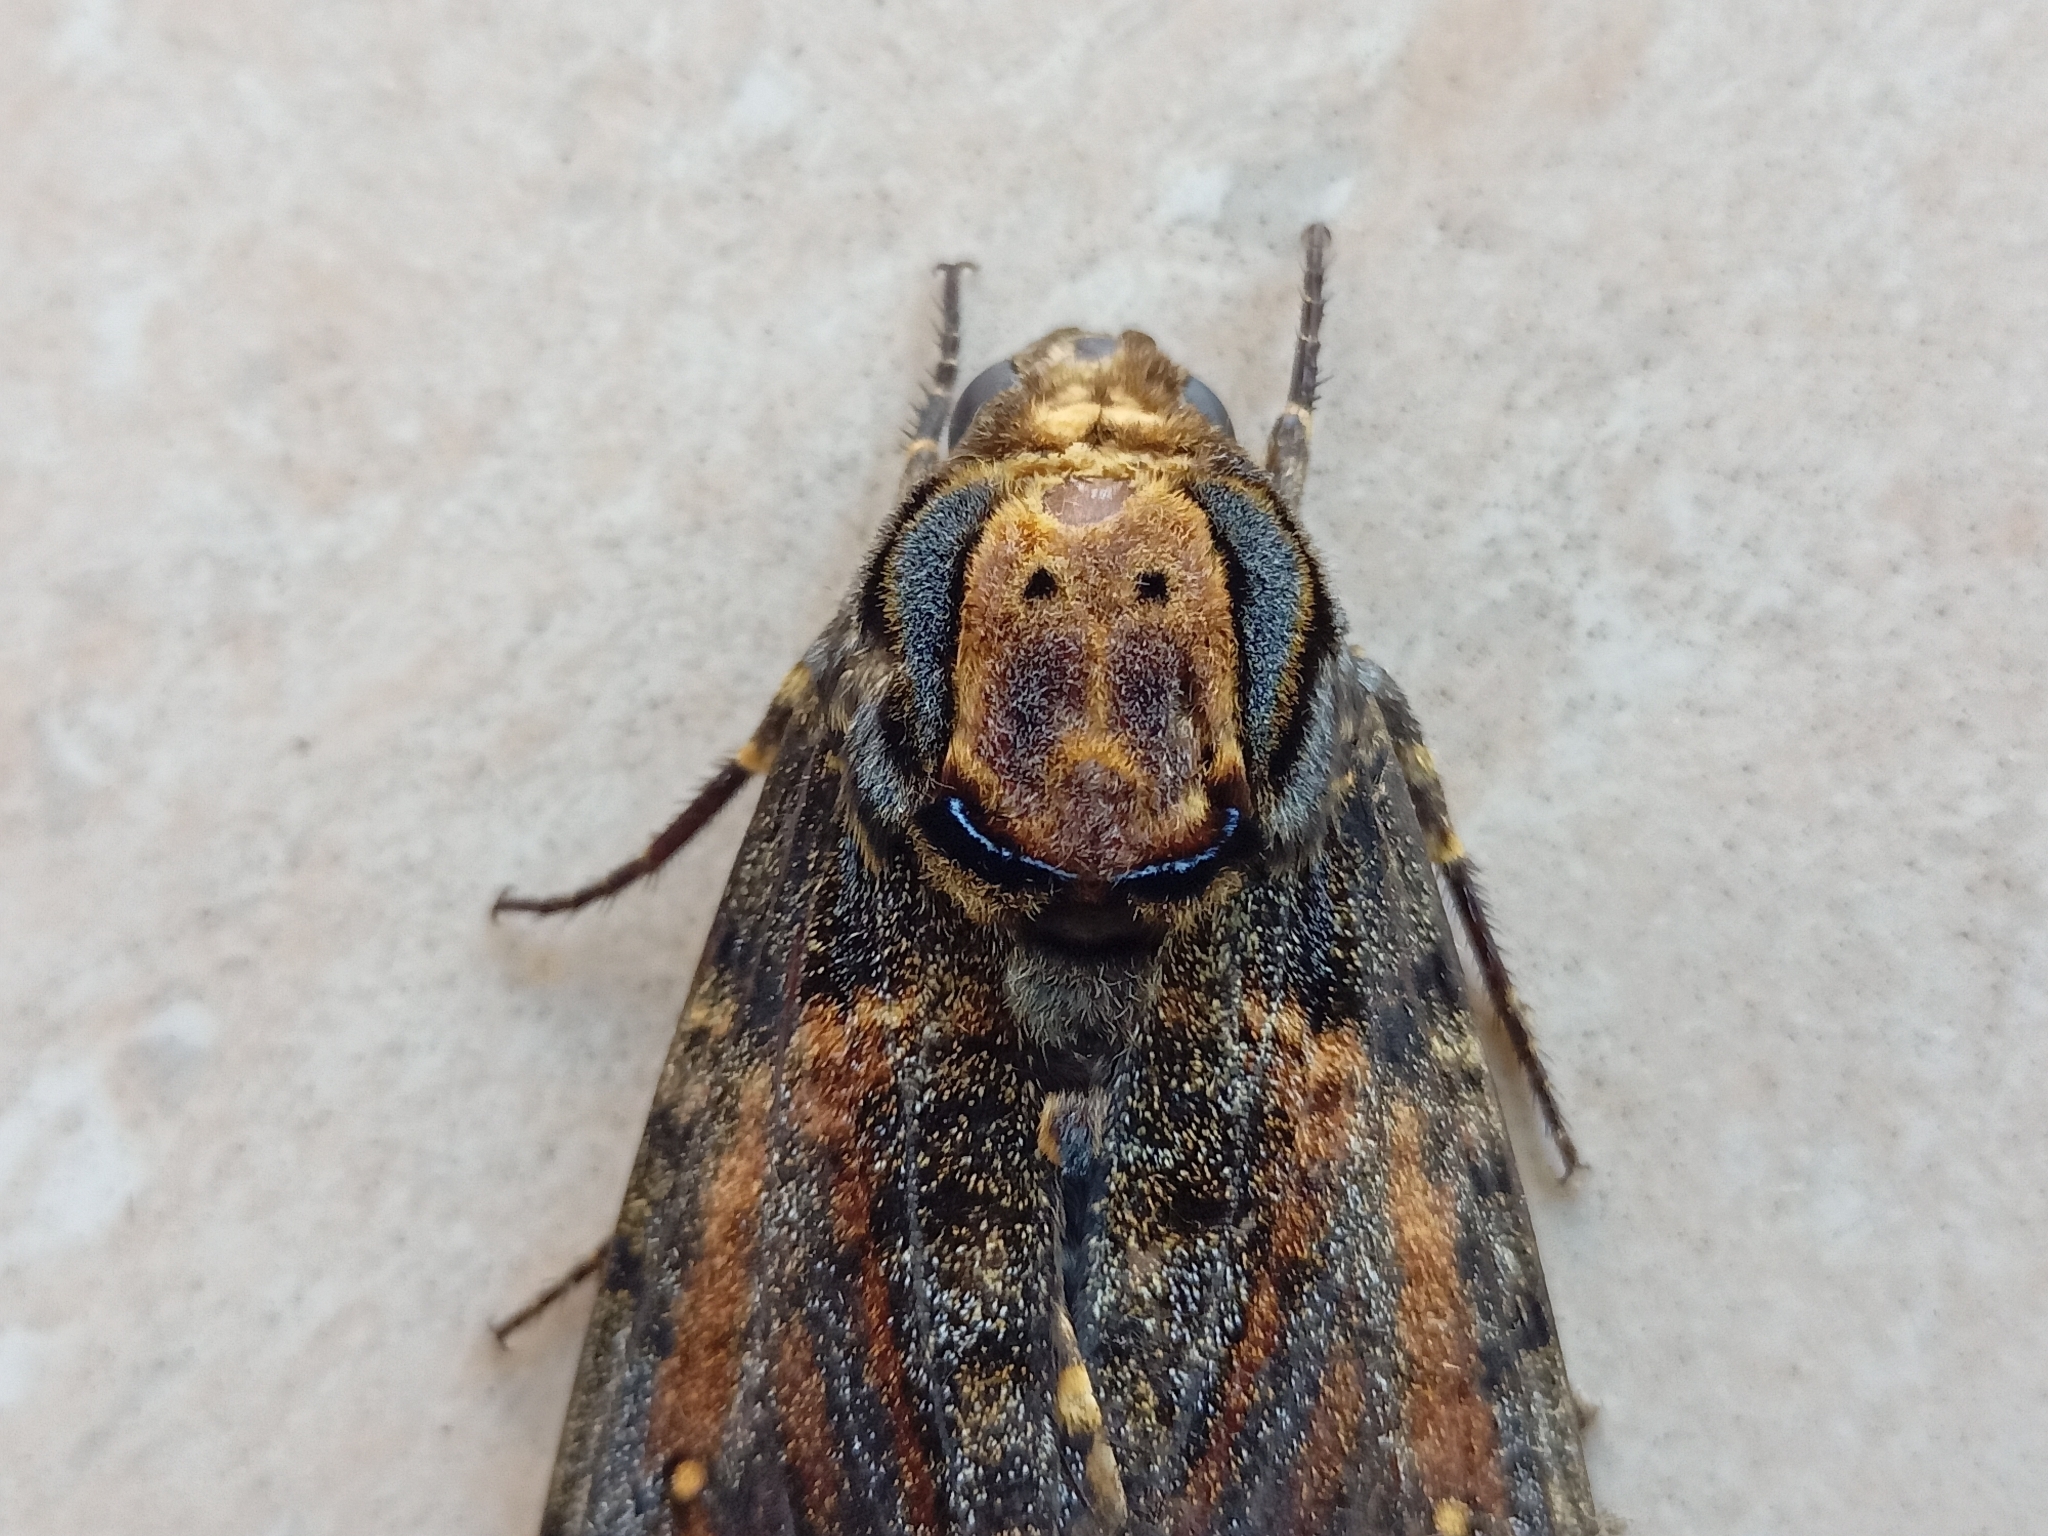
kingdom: Animalia
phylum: Arthropoda
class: Insecta
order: Lepidoptera
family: Sphingidae
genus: Acherontia
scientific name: Acherontia styx
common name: Death's-head hawk moth
